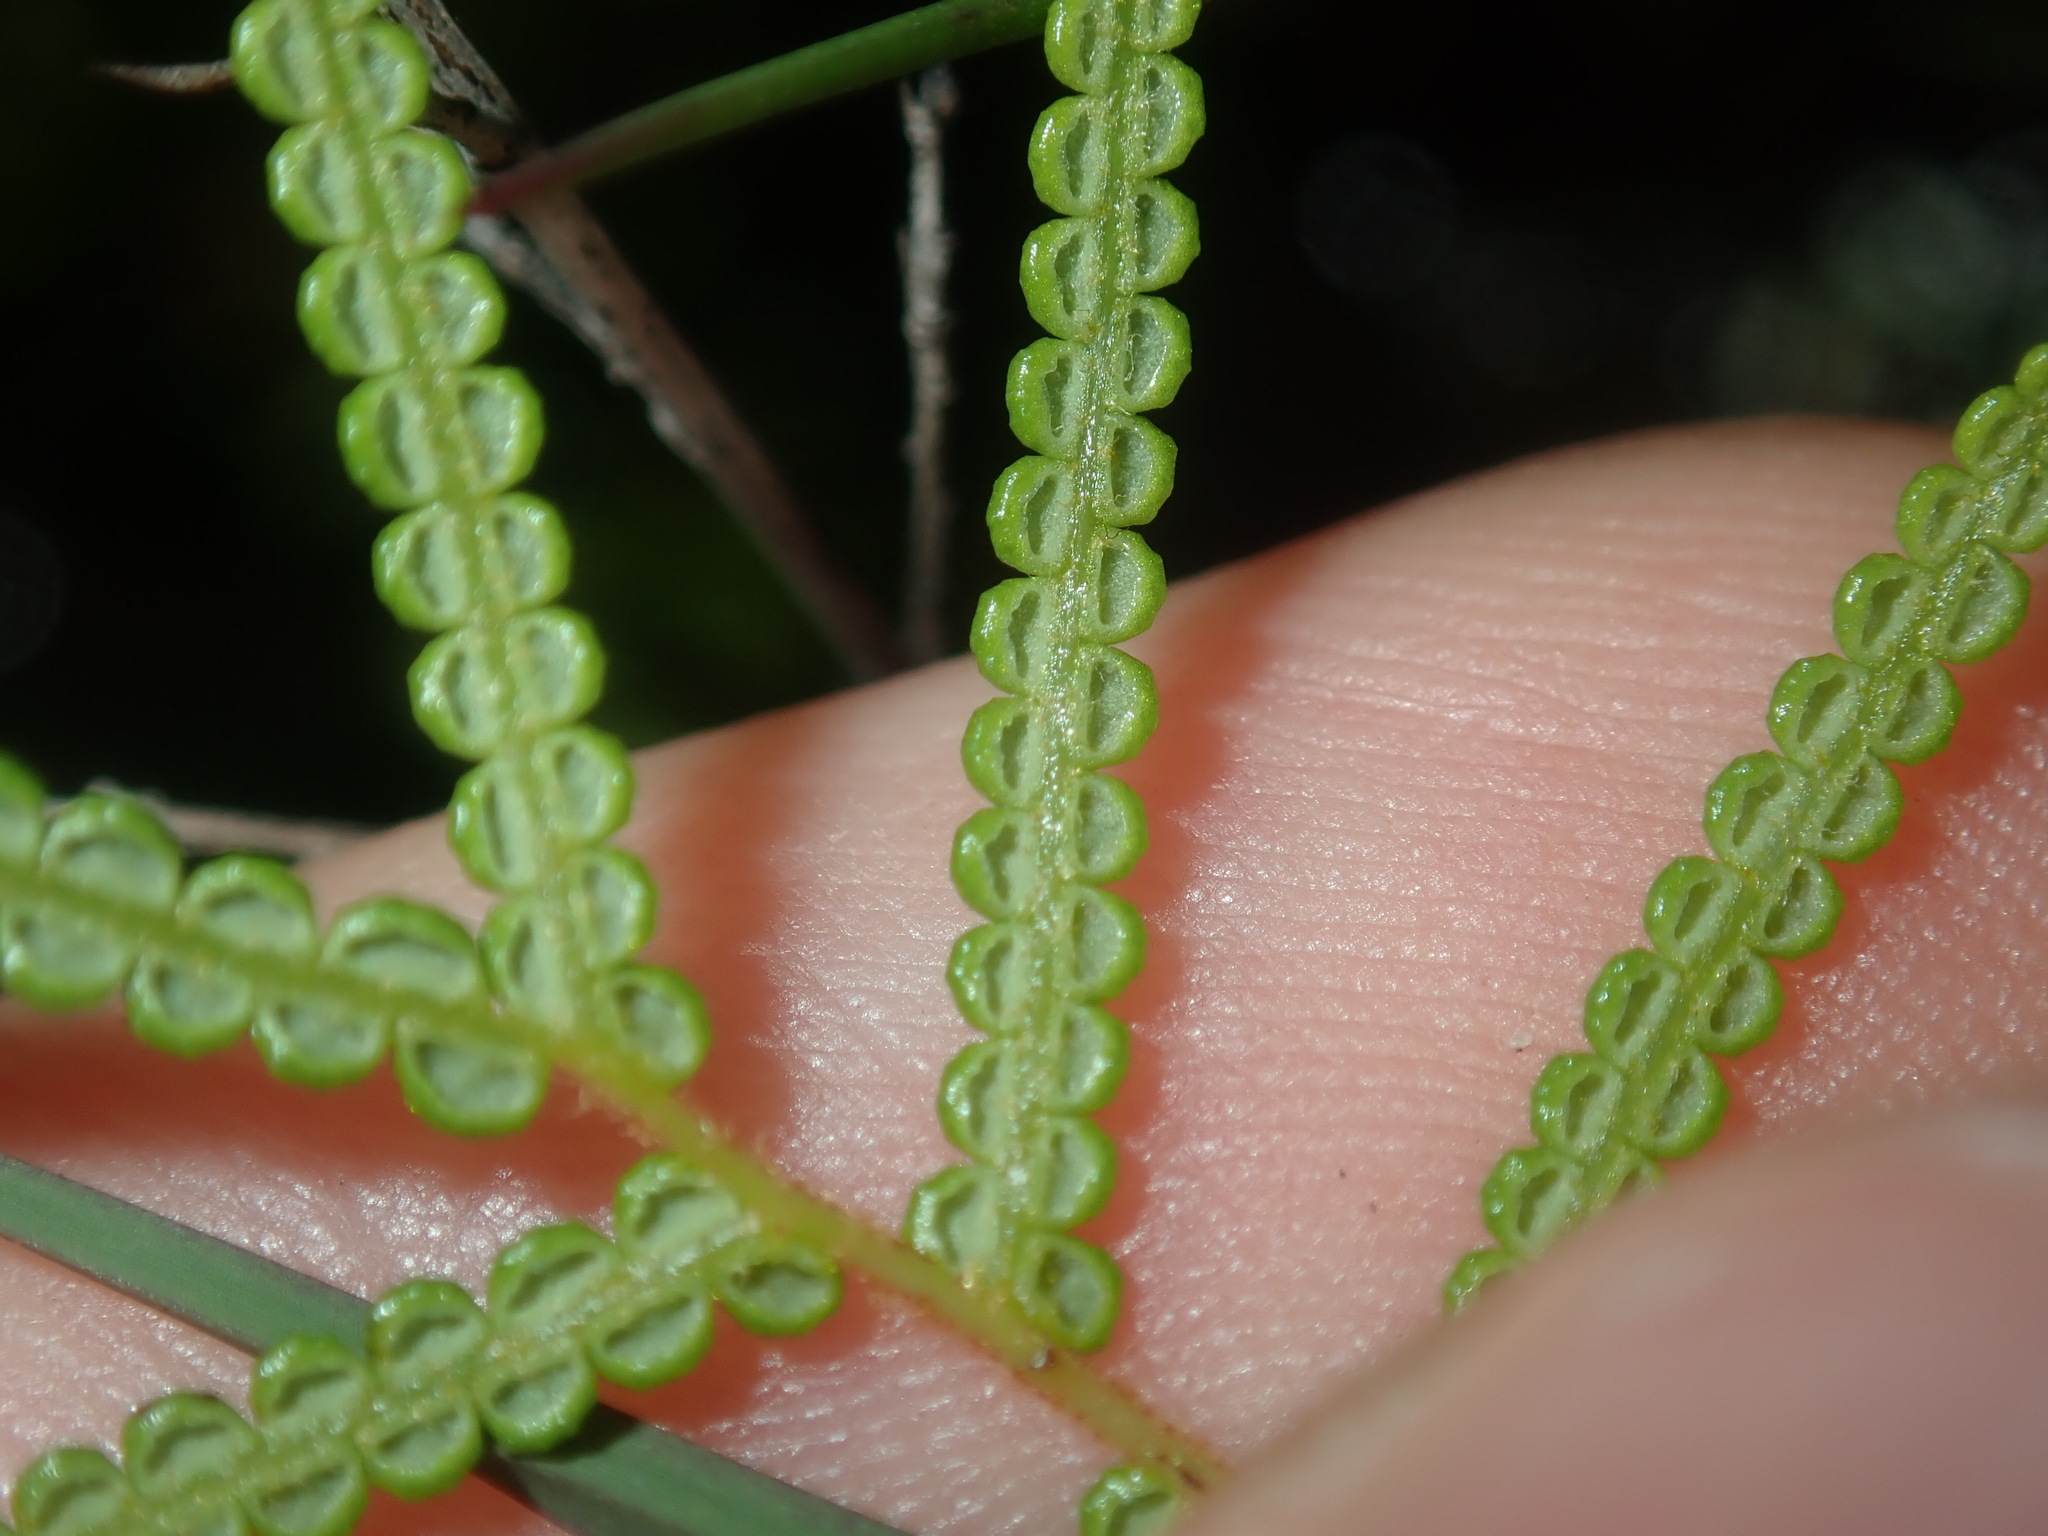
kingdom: Plantae
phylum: Tracheophyta
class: Polypodiopsida
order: Gleicheniales
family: Gleicheniaceae
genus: Gleichenia
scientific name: Gleichenia dicarpa
